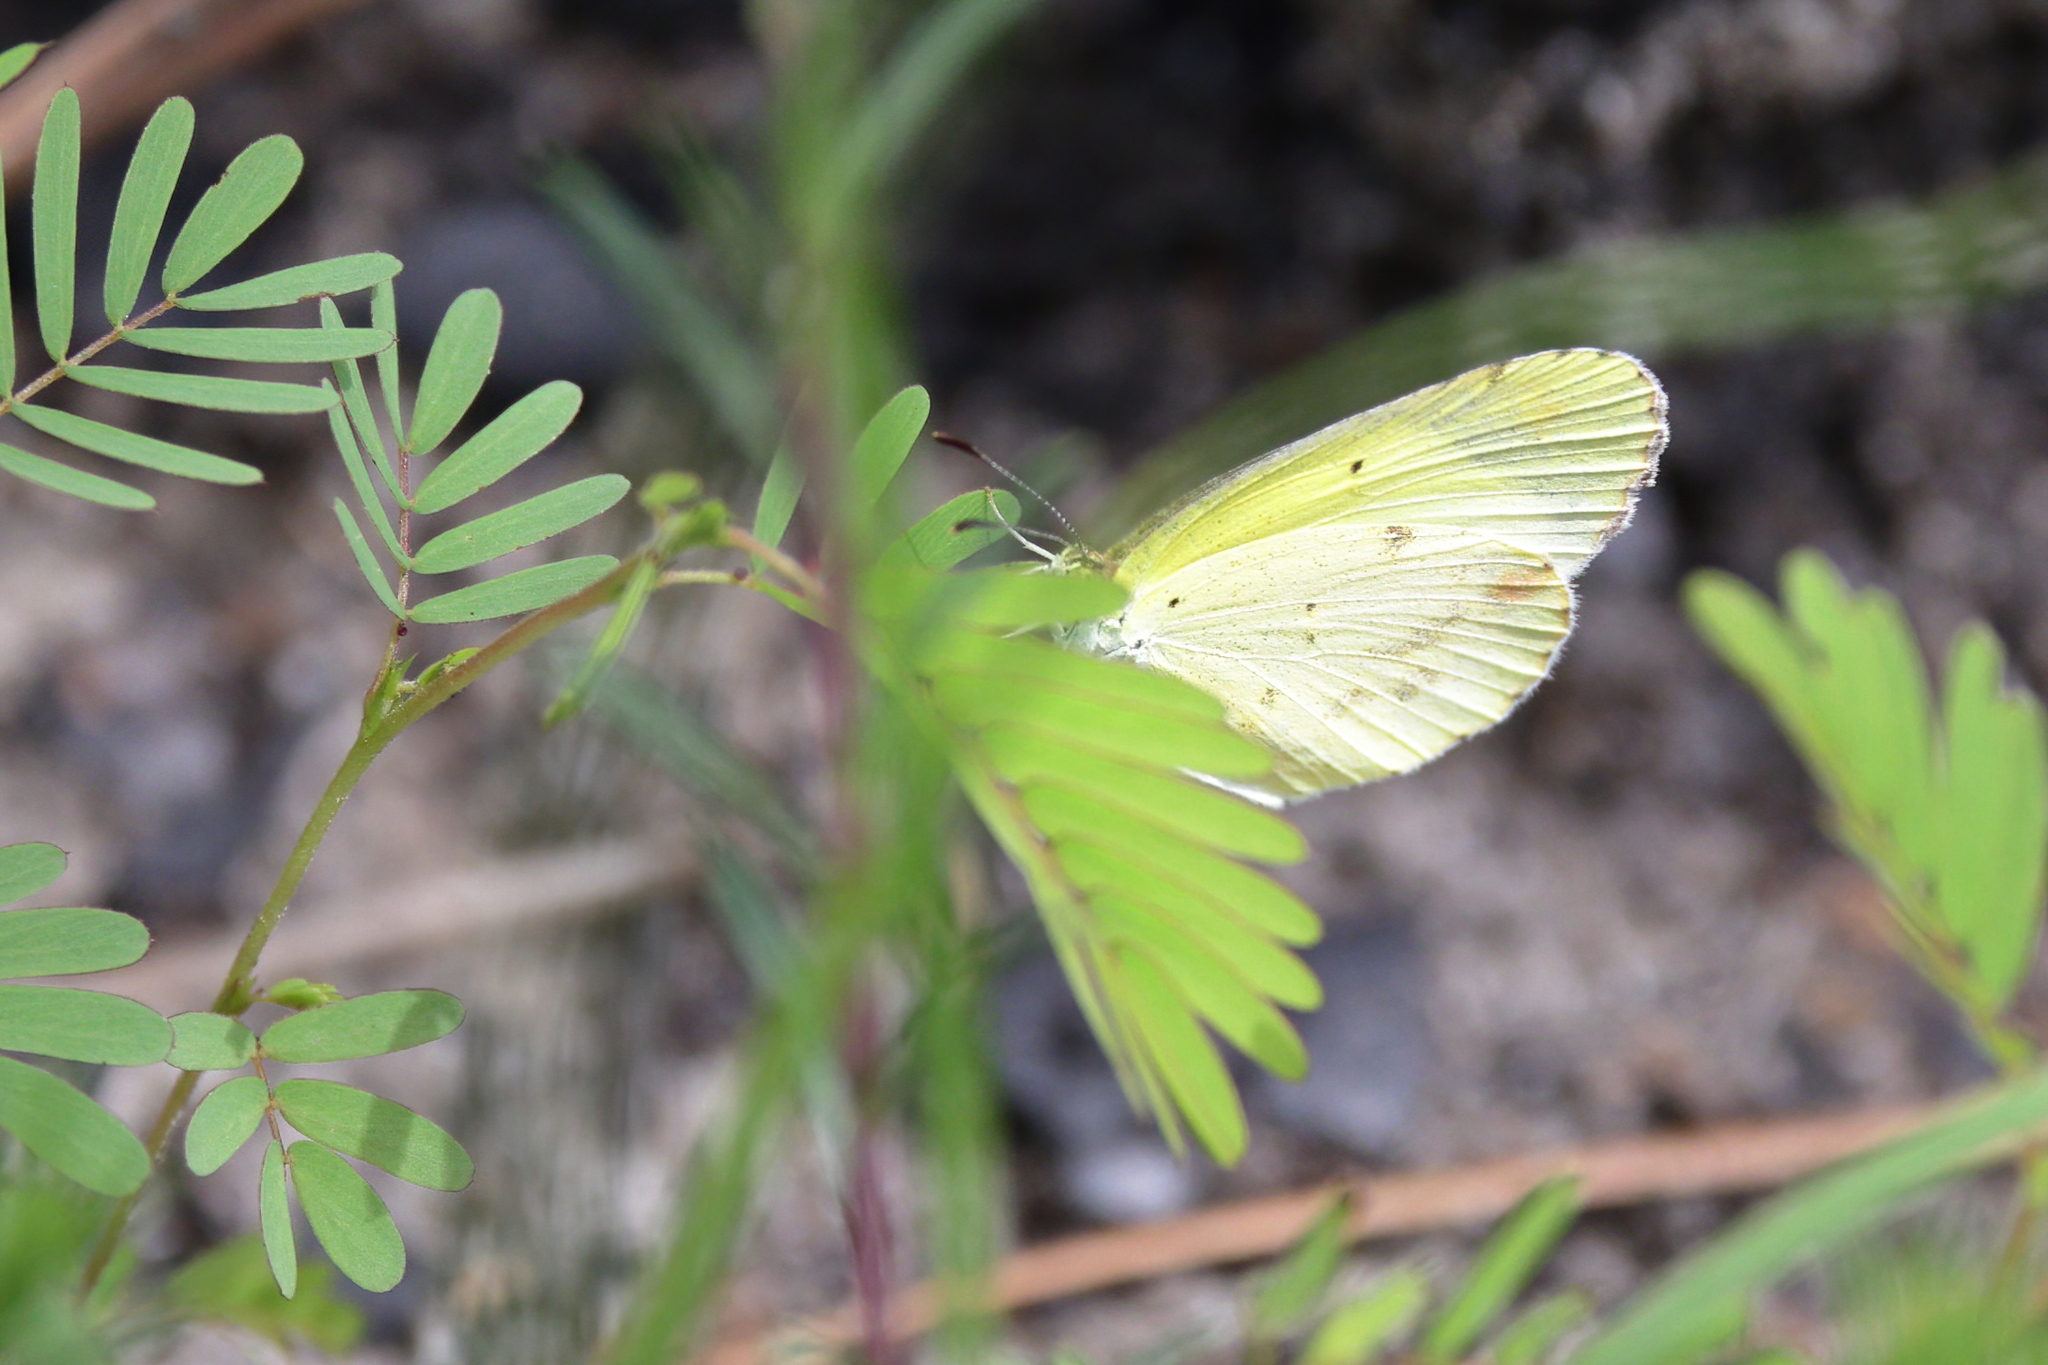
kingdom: Animalia
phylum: Arthropoda
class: Insecta
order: Lepidoptera
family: Pieridae
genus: Pyrisitia
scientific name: Pyrisitia lisa
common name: Little yellow
